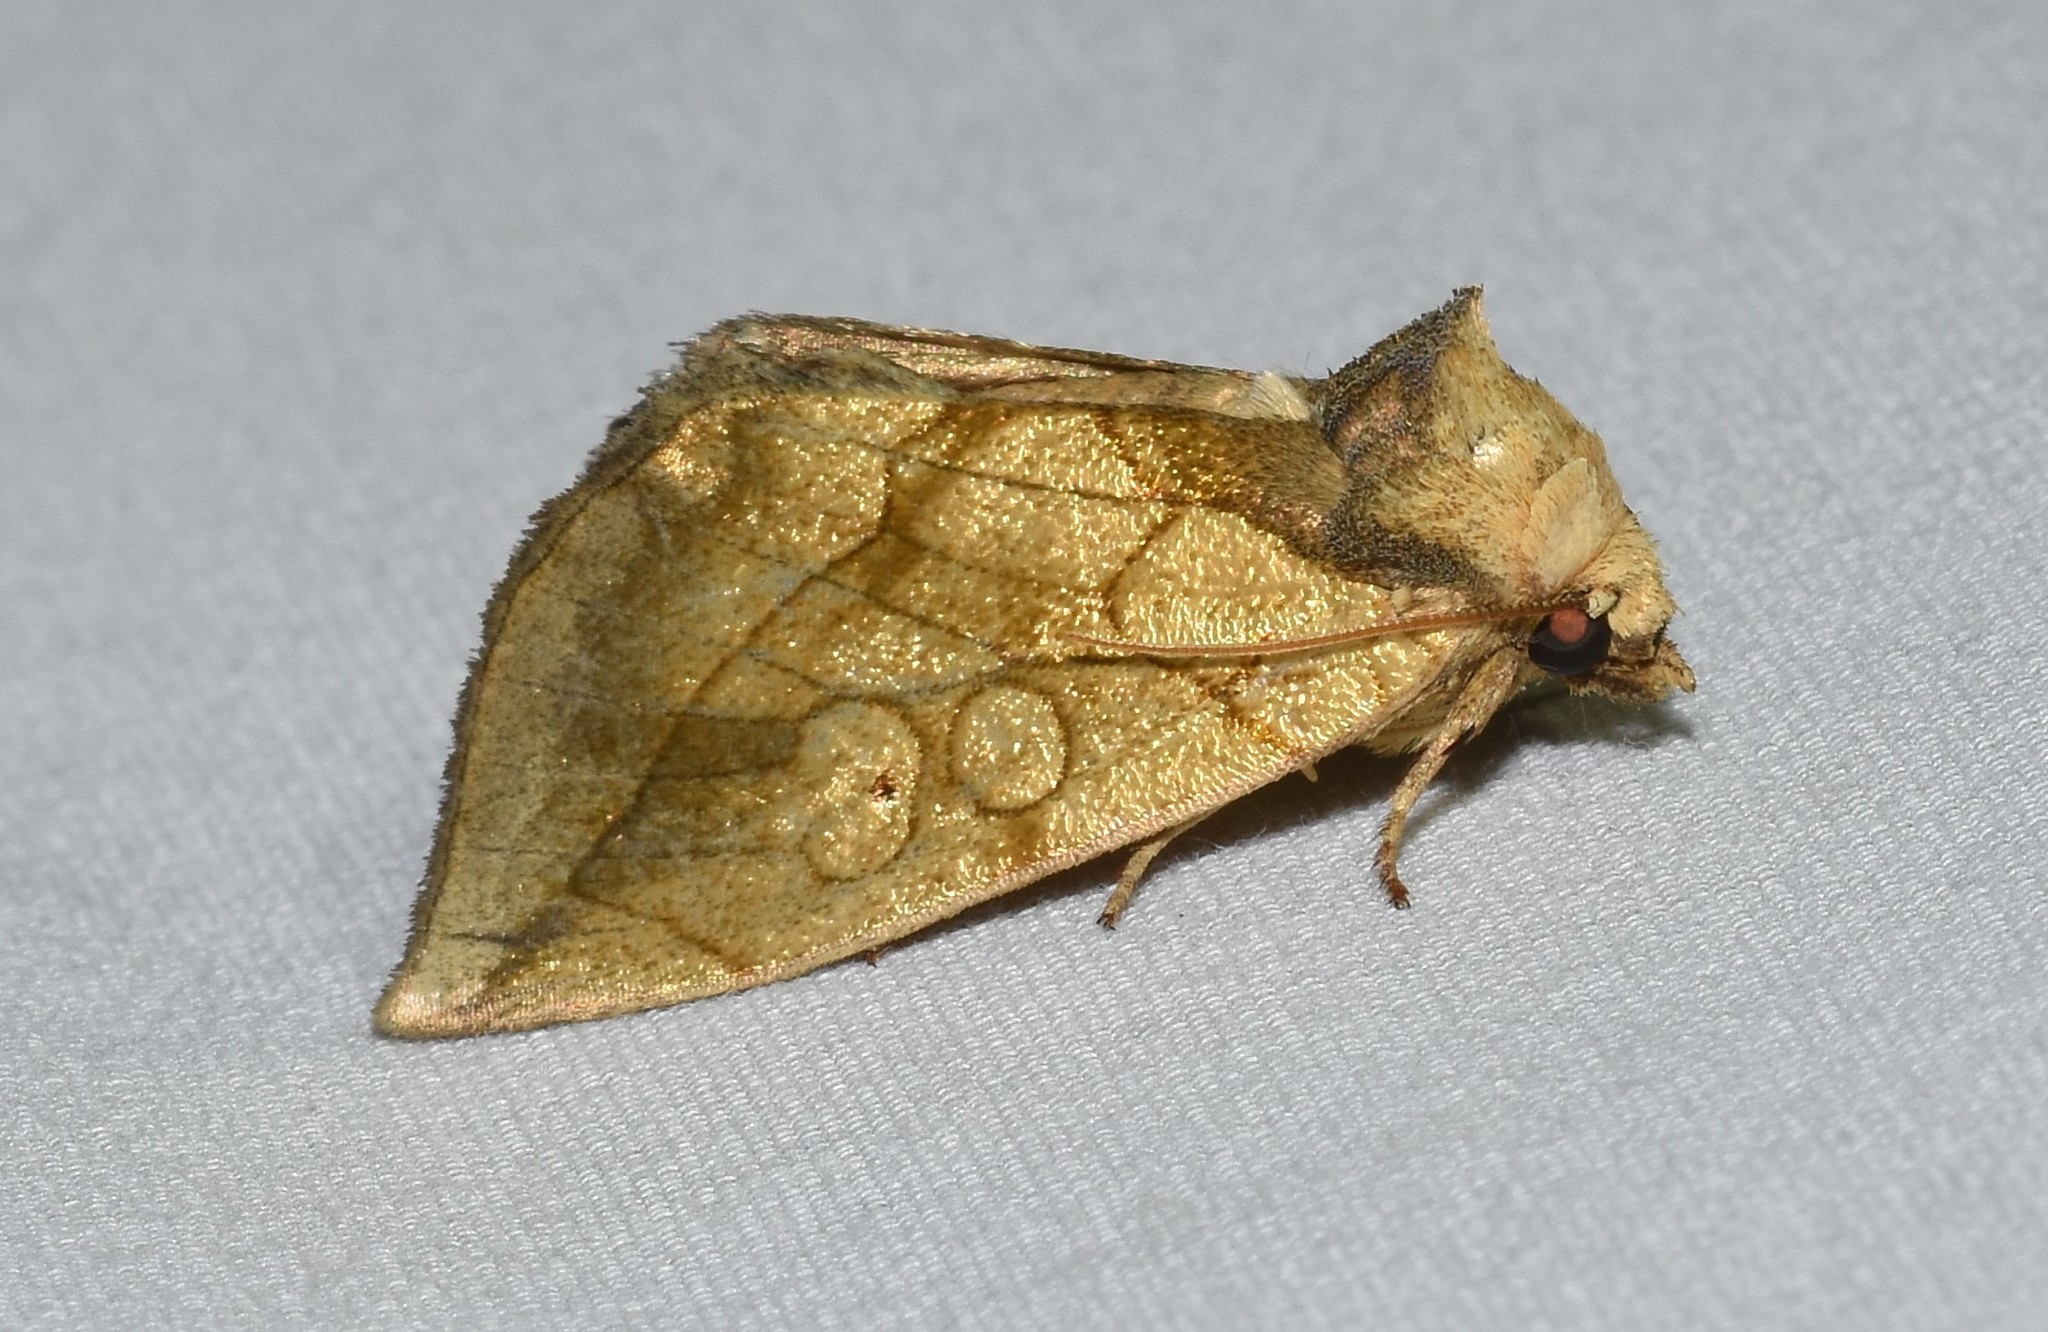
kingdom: Animalia
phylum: Arthropoda
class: Insecta
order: Lepidoptera
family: Noctuidae
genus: Basilodes
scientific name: Basilodes pepita
